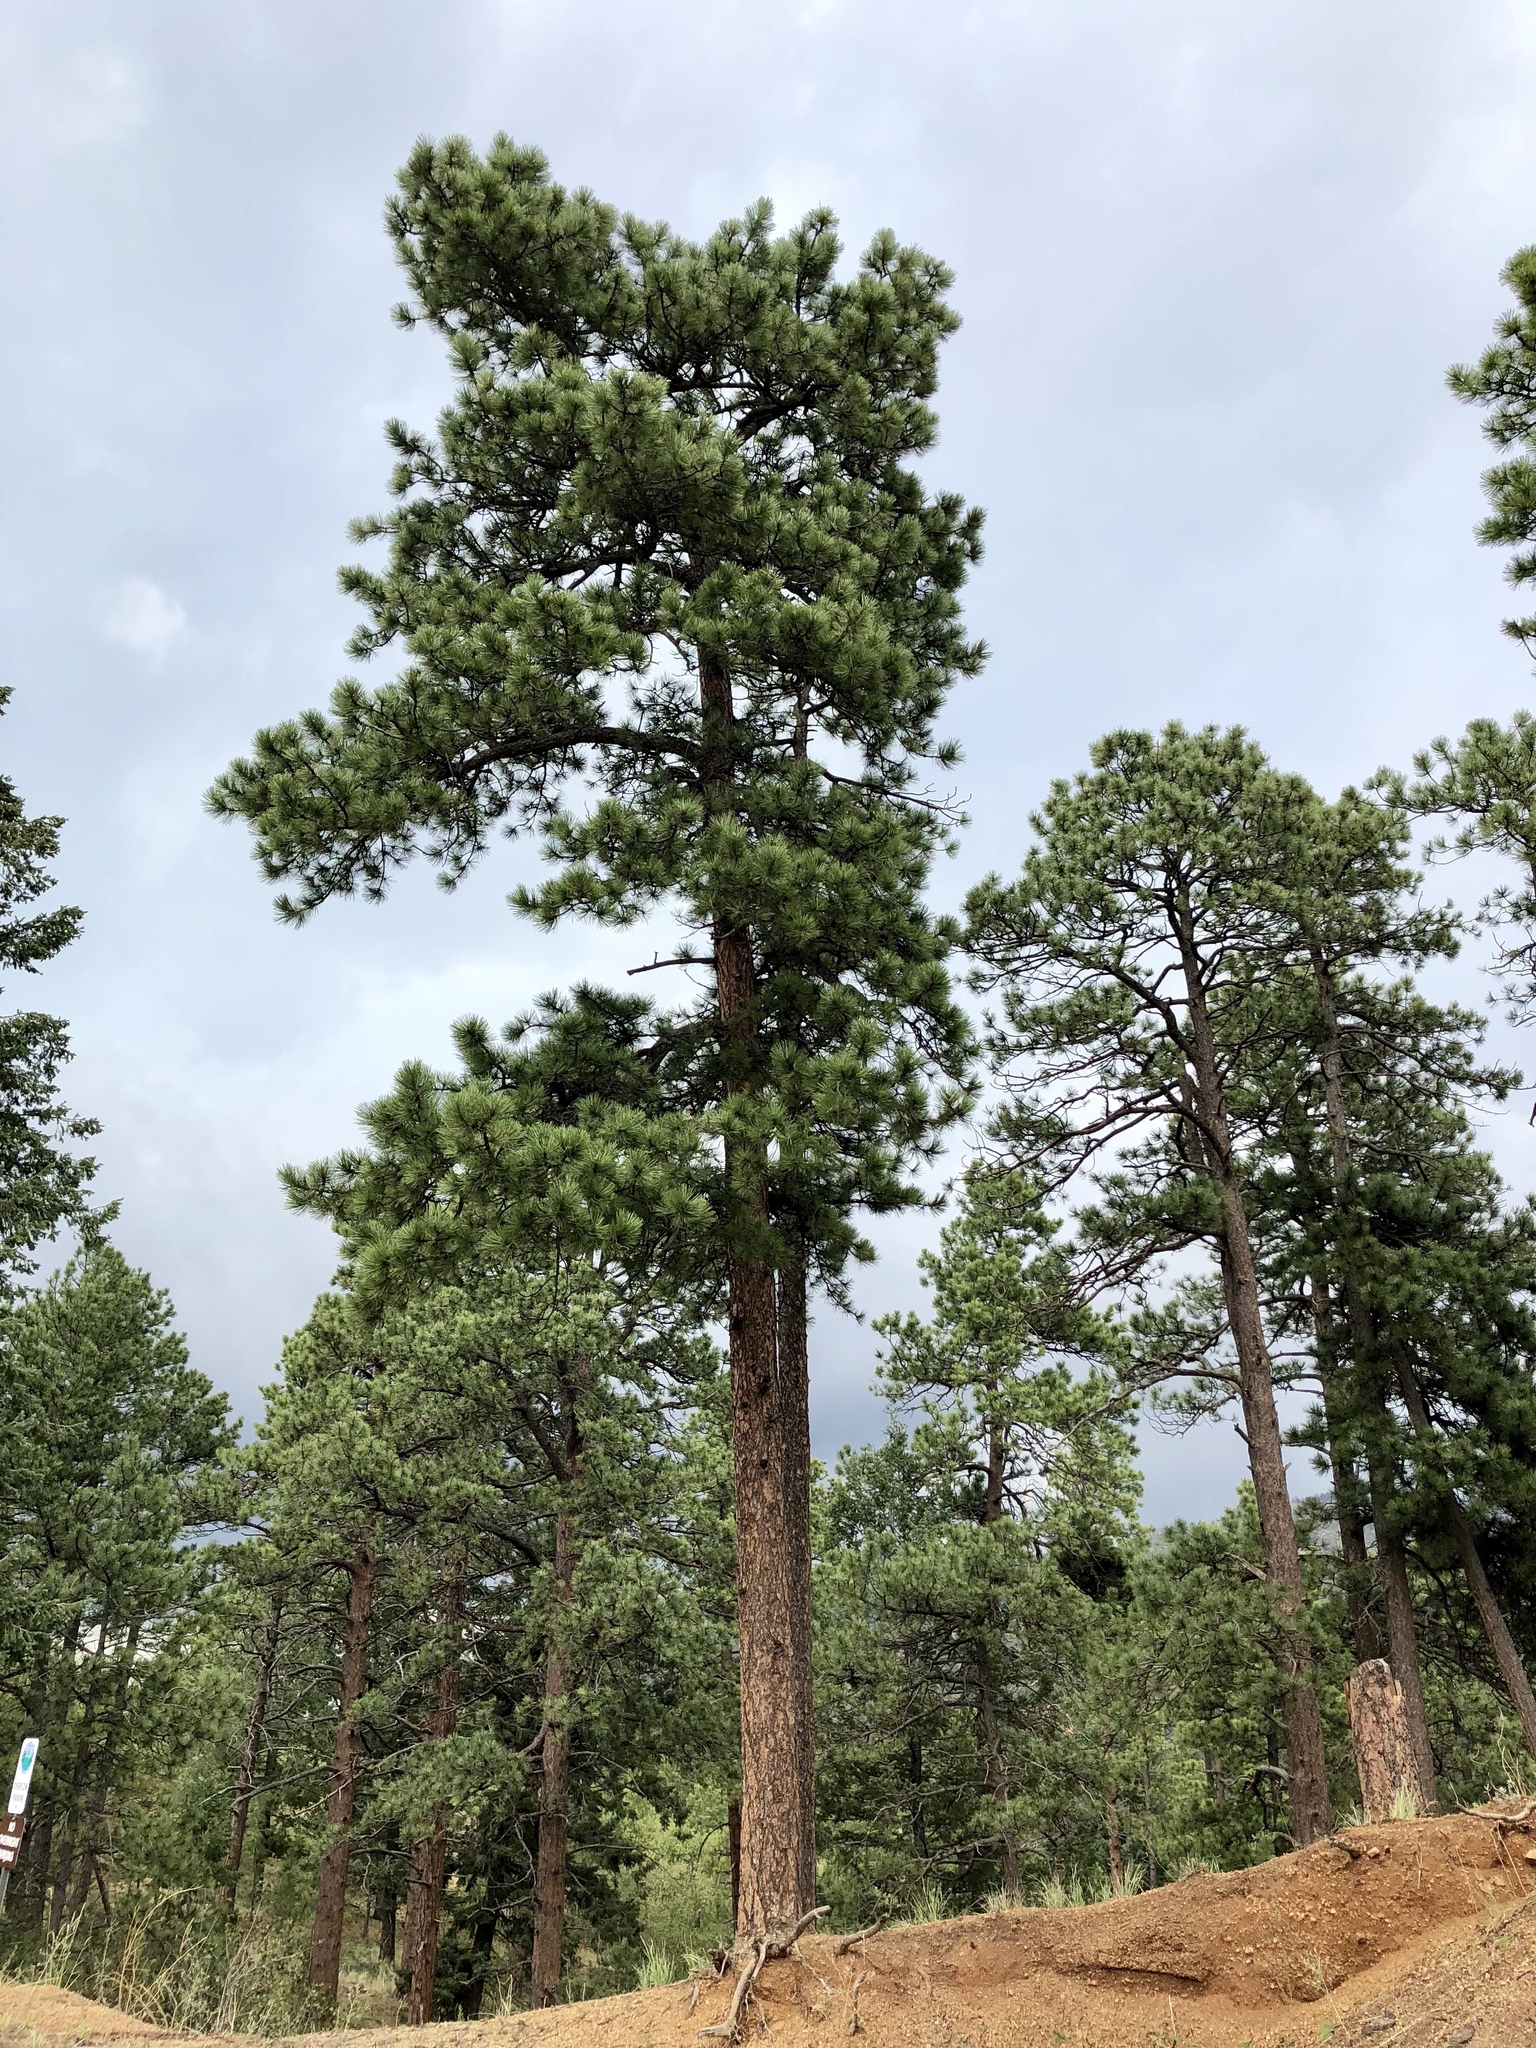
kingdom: Plantae
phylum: Tracheophyta
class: Pinopsida
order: Pinales
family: Pinaceae
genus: Pinus
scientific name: Pinus ponderosa
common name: Western yellow-pine
